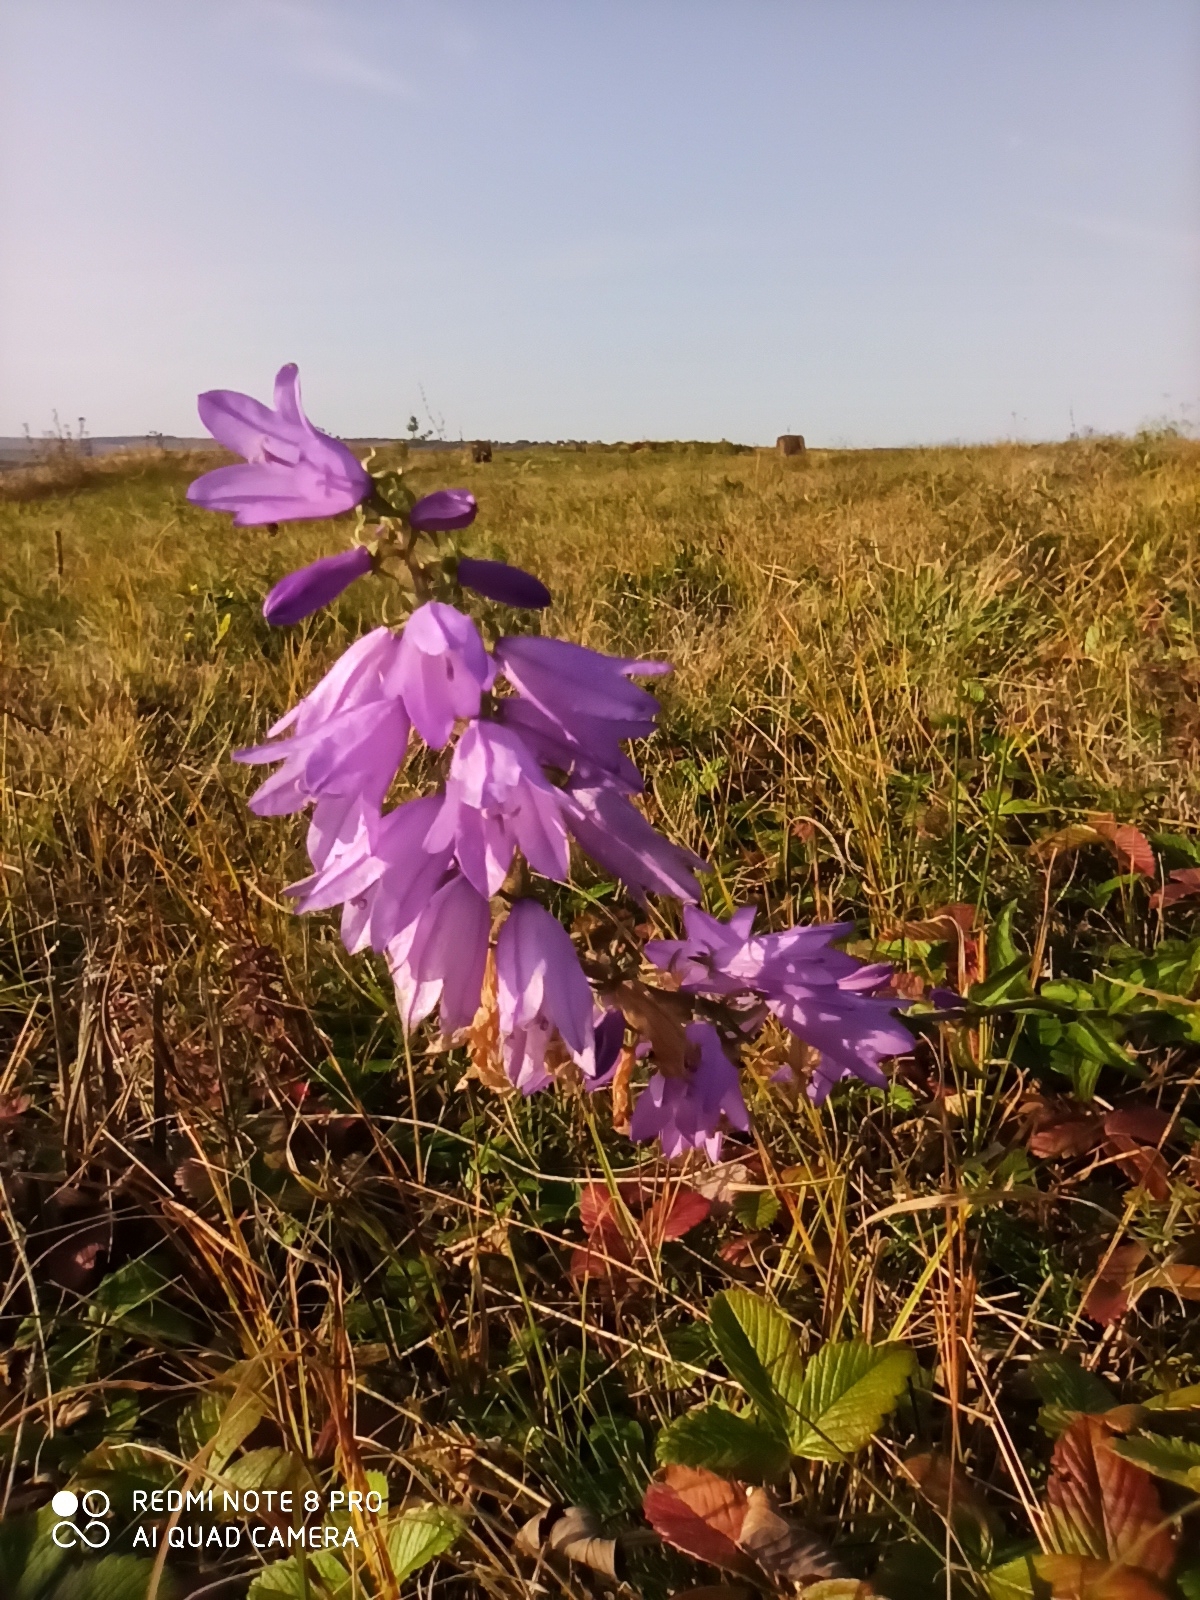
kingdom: Plantae
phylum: Tracheophyta
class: Magnoliopsida
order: Asterales
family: Campanulaceae
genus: Campanula
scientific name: Campanula bononiensis
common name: Pale bellflower
